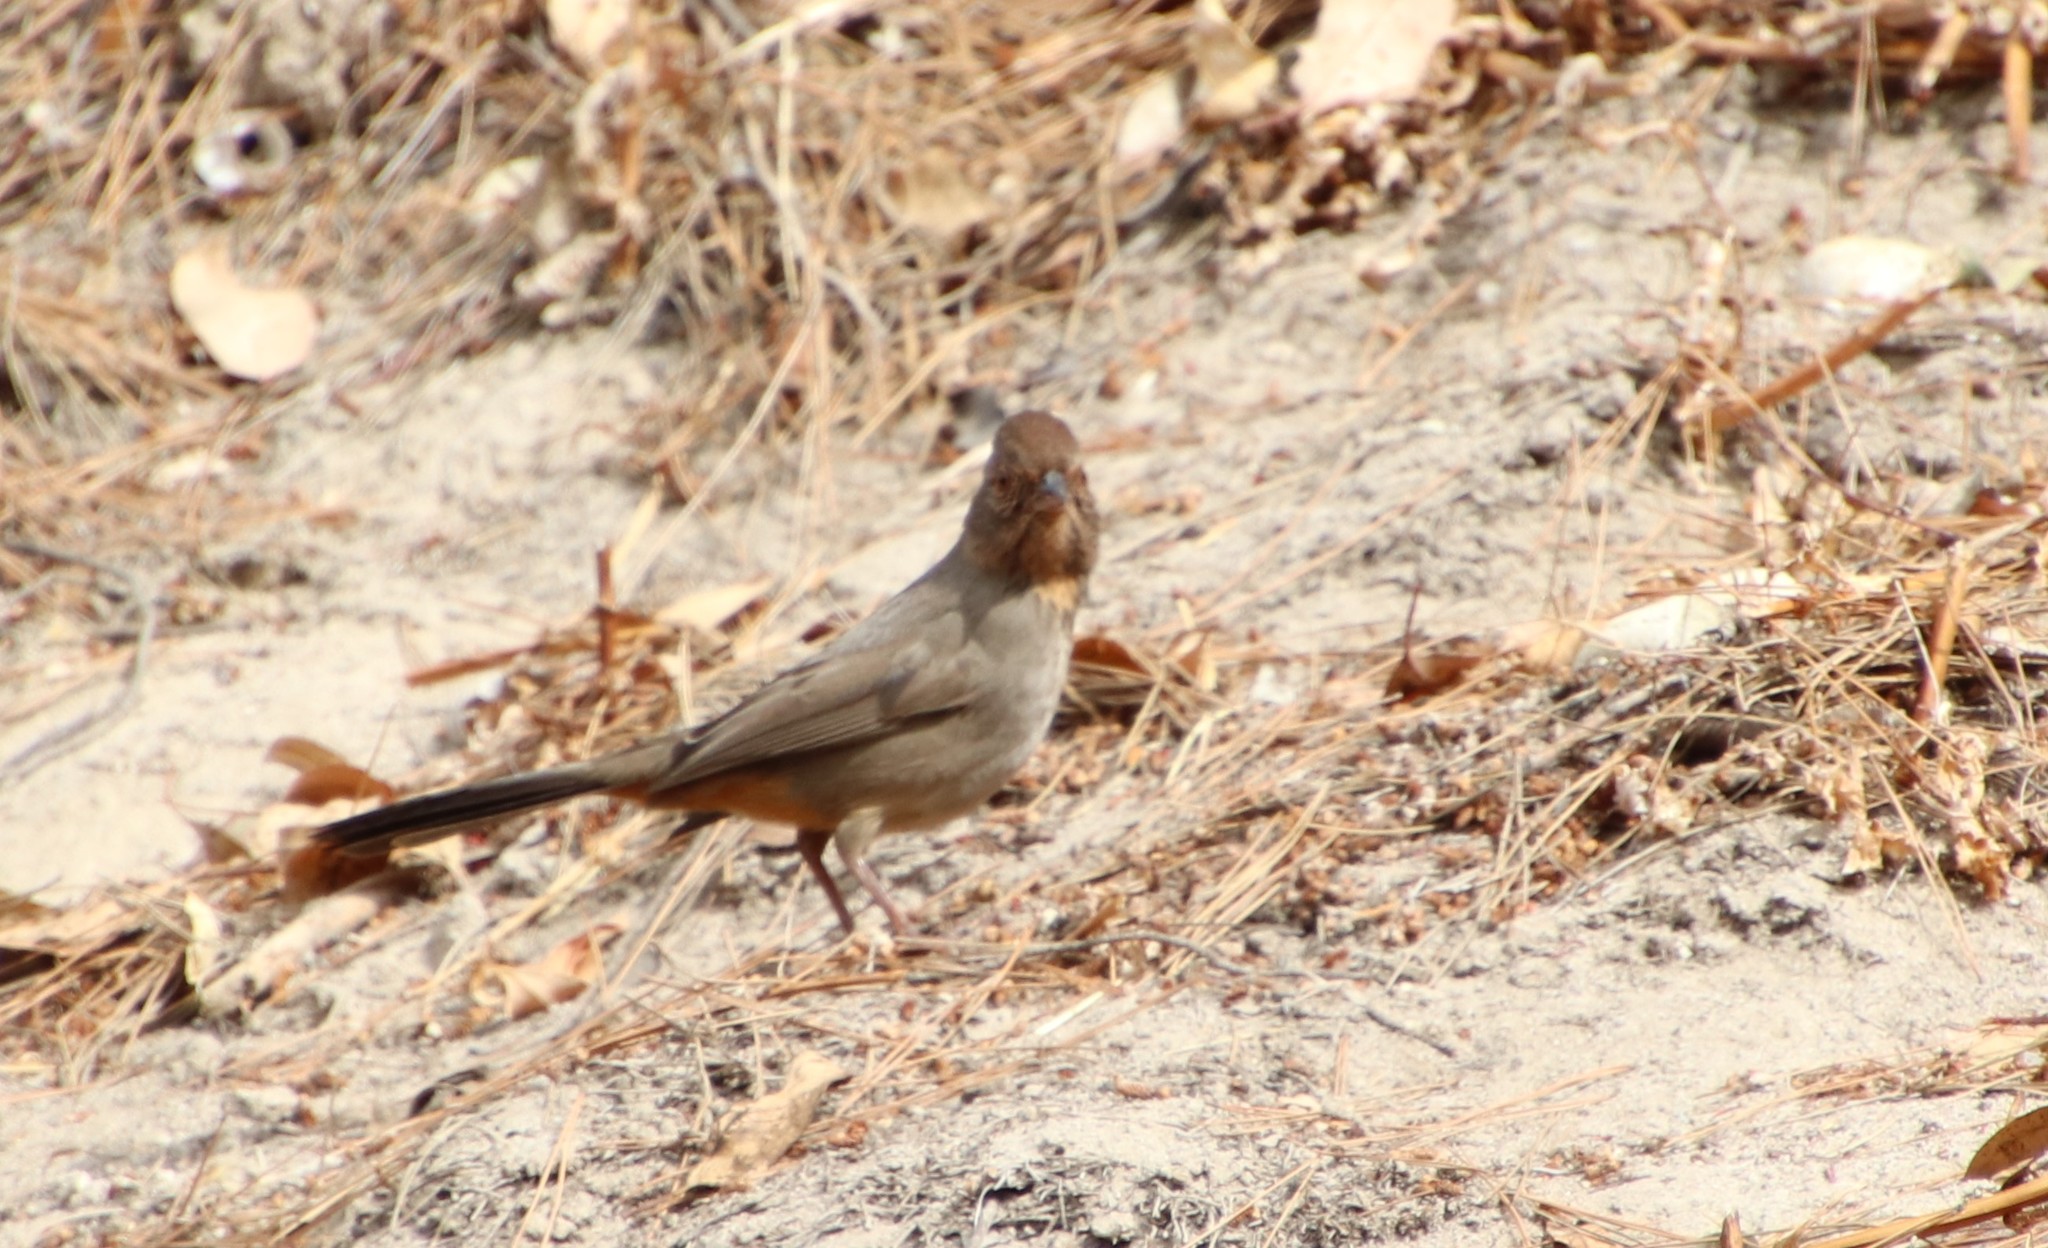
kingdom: Animalia
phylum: Chordata
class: Aves
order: Passeriformes
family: Passerellidae
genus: Melozone
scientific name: Melozone crissalis
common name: California towhee
